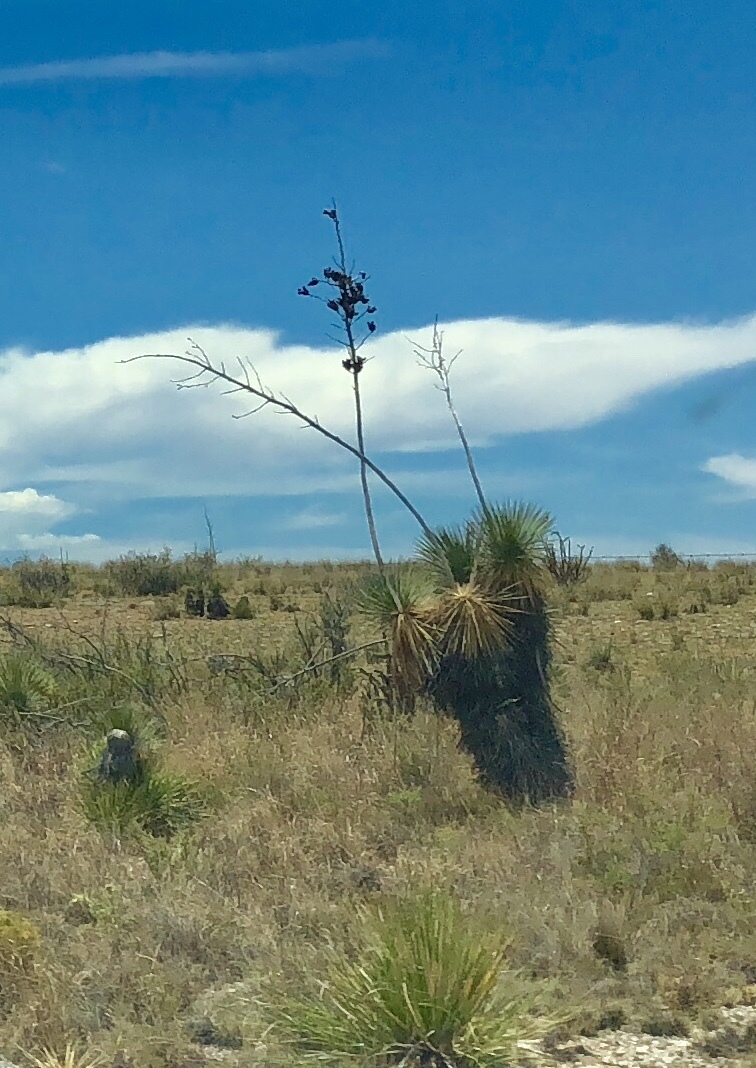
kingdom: Plantae
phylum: Tracheophyta
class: Liliopsida
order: Asparagales
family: Asparagaceae
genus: Yucca
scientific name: Yucca elata
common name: Palmella
